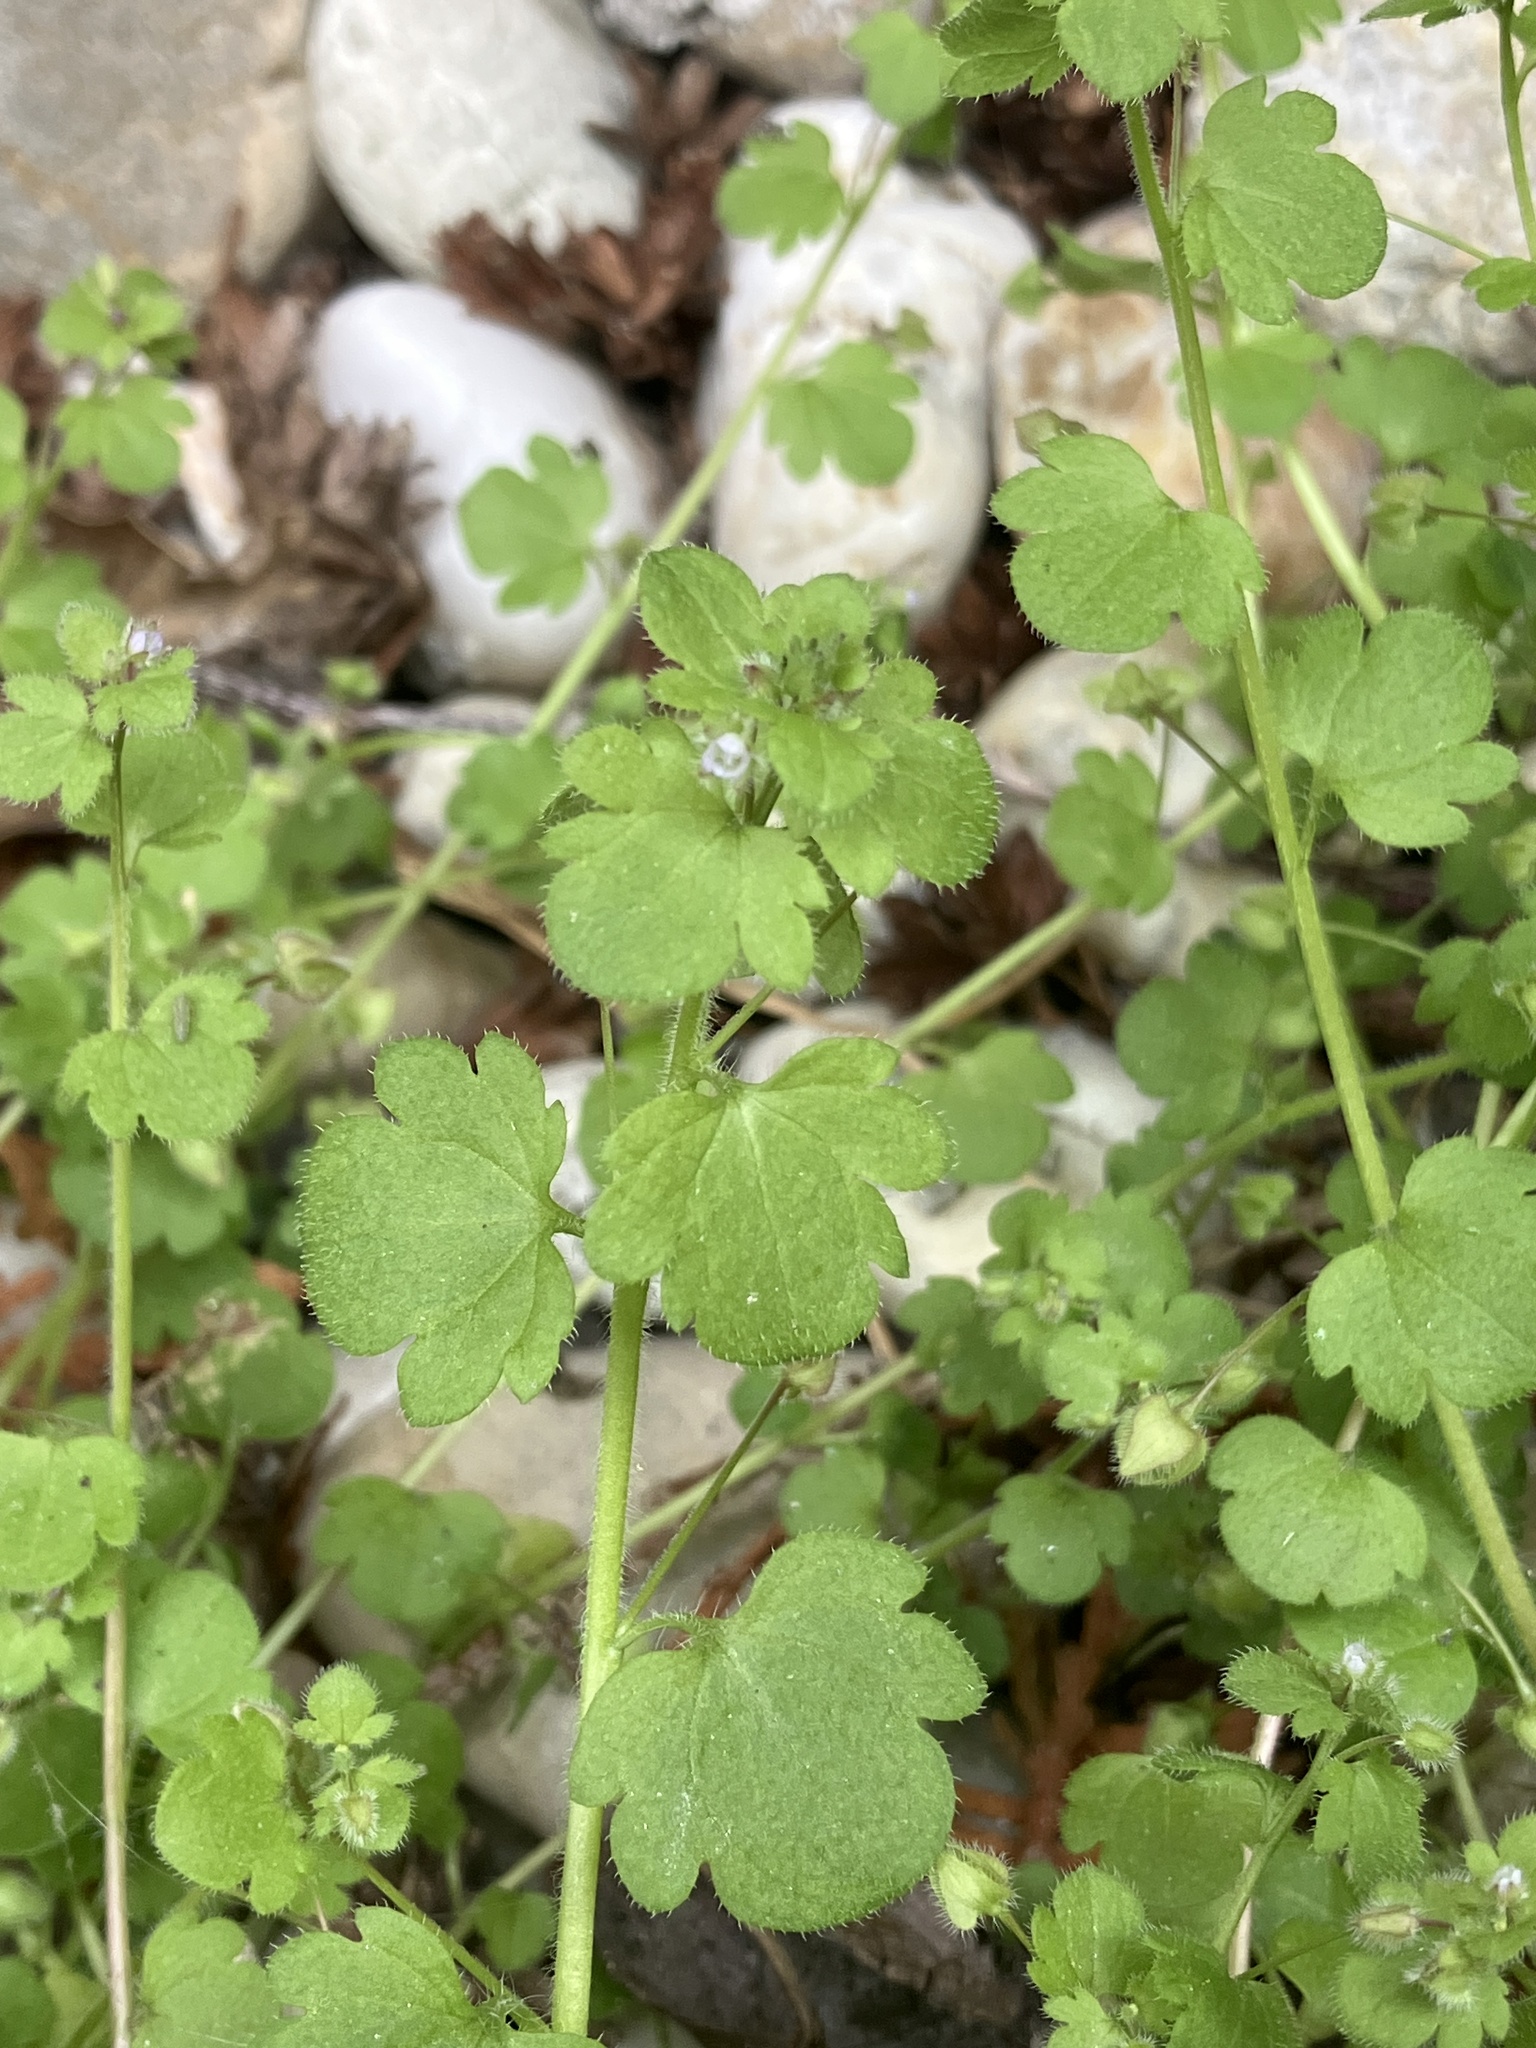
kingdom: Plantae
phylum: Tracheophyta
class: Magnoliopsida
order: Lamiales
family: Plantaginaceae
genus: Veronica
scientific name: Veronica sublobata
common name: False ivy-leaved speedwell
